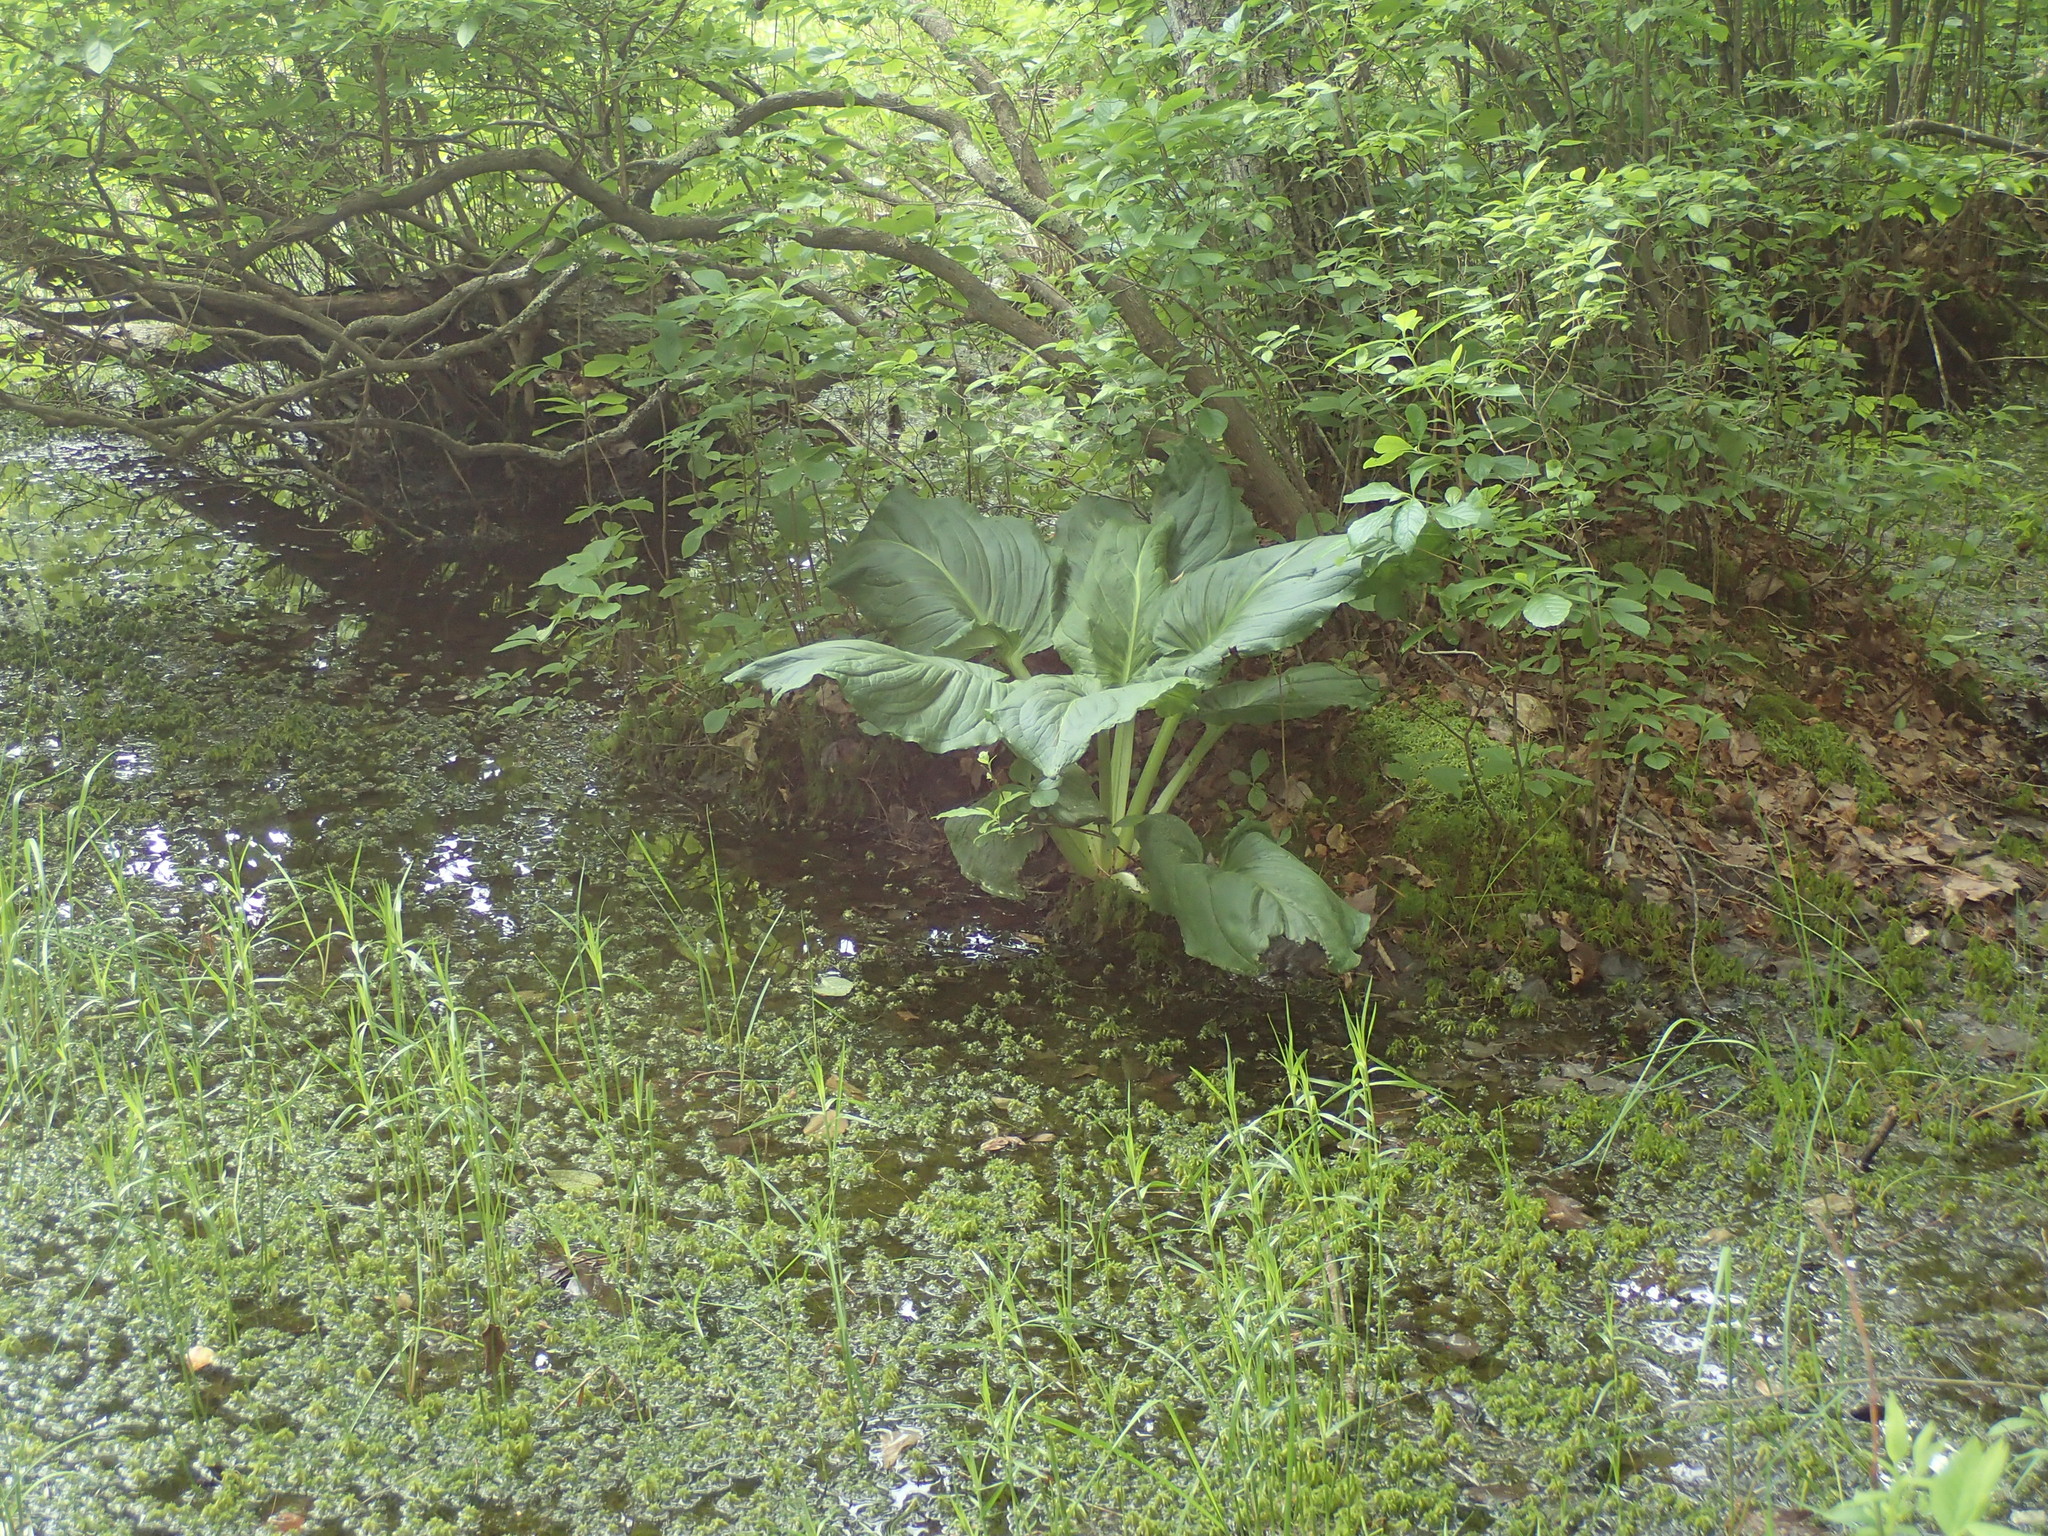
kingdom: Plantae
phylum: Tracheophyta
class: Liliopsida
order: Alismatales
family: Araceae
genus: Symplocarpus
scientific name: Symplocarpus foetidus
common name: Eastern skunk cabbage
